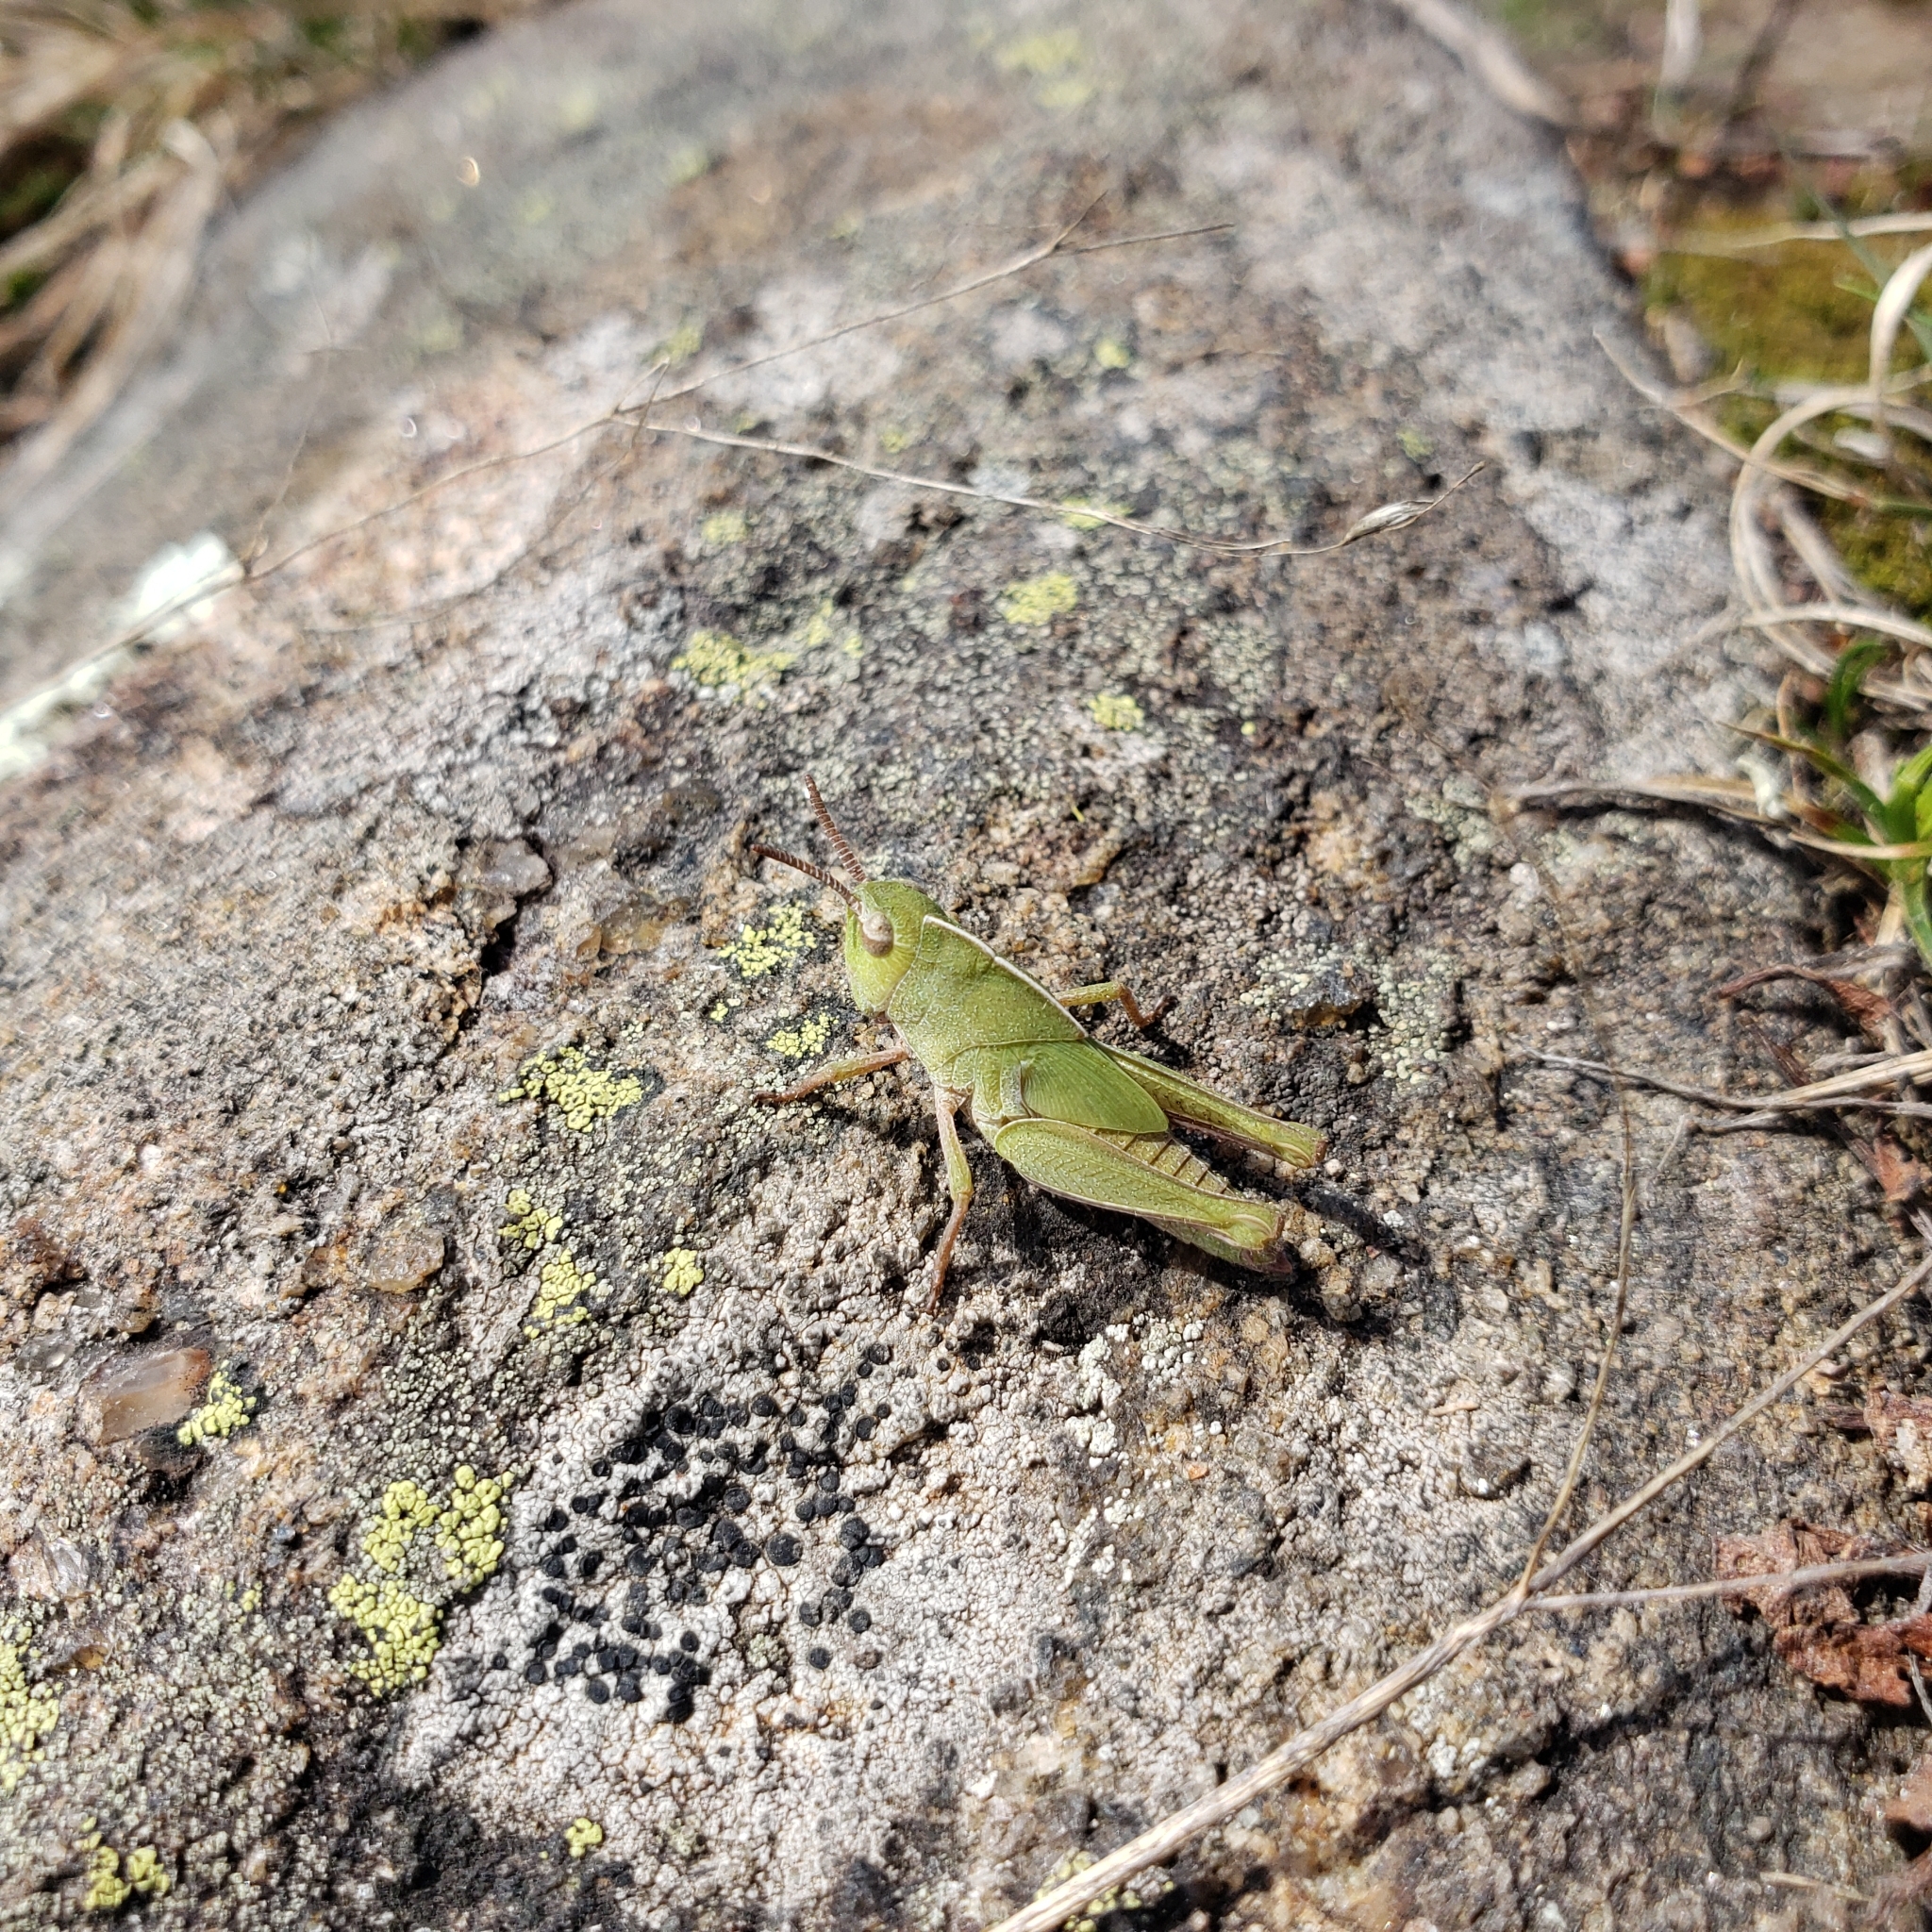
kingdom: Animalia
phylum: Arthropoda
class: Insecta
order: Orthoptera
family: Acrididae
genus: Chortophaga
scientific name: Chortophaga viridifasciata
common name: Green-striped grasshopper
